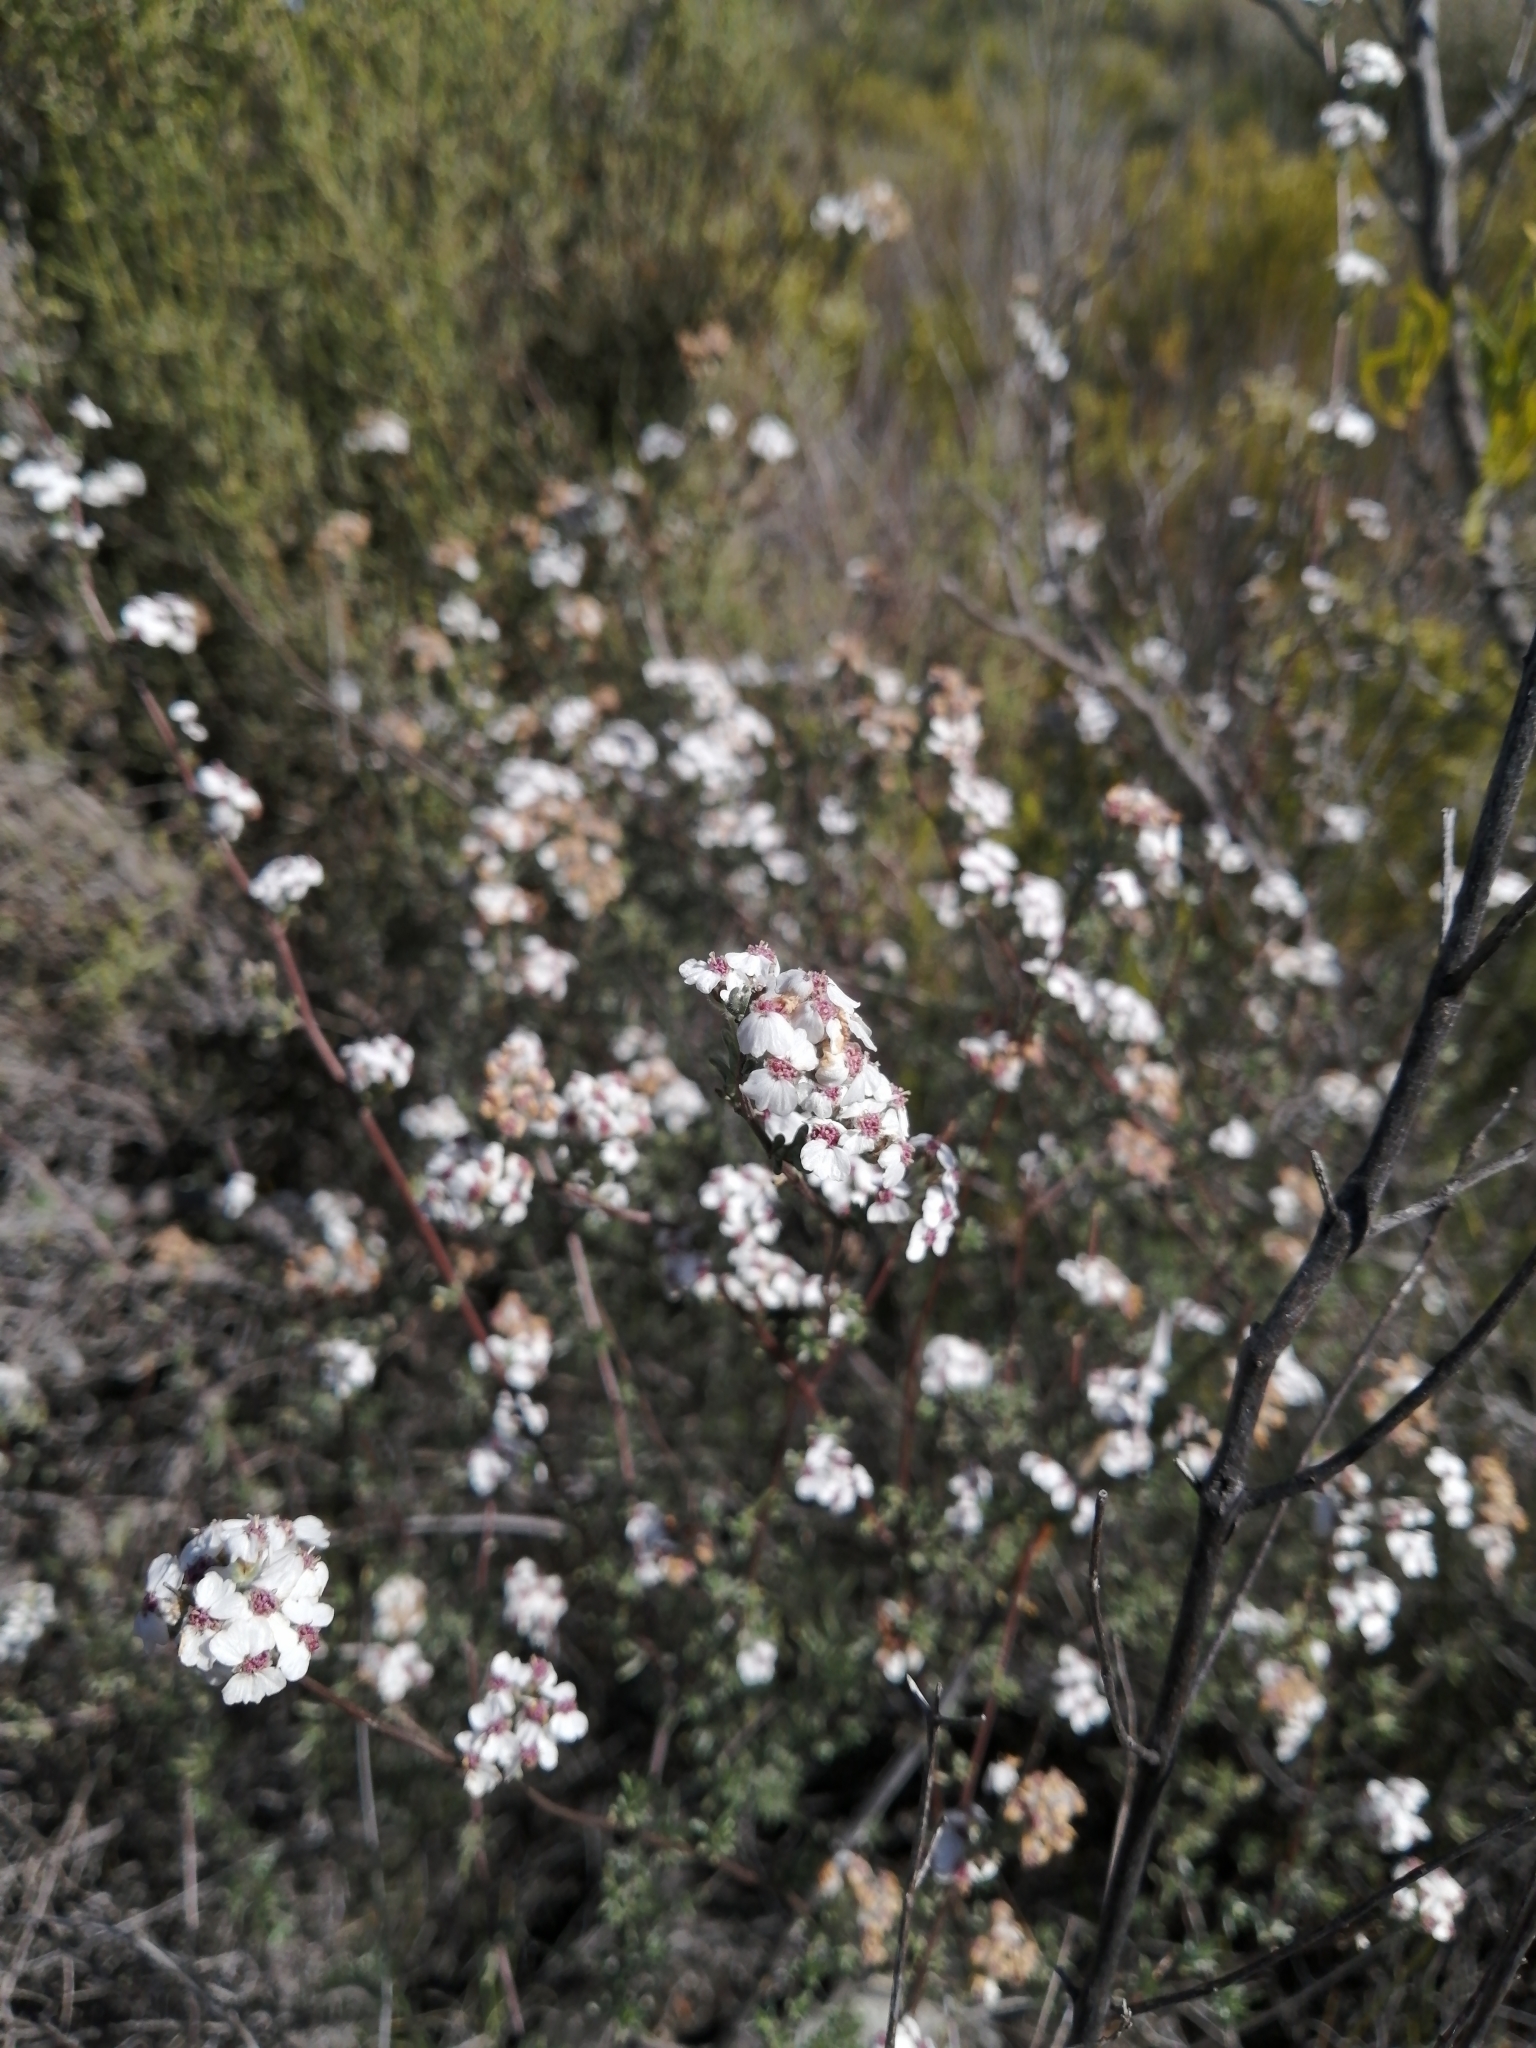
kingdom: Plantae
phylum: Tracheophyta
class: Magnoliopsida
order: Asterales
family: Asteraceae
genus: Eriocephalus
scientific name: Eriocephalus africanus
